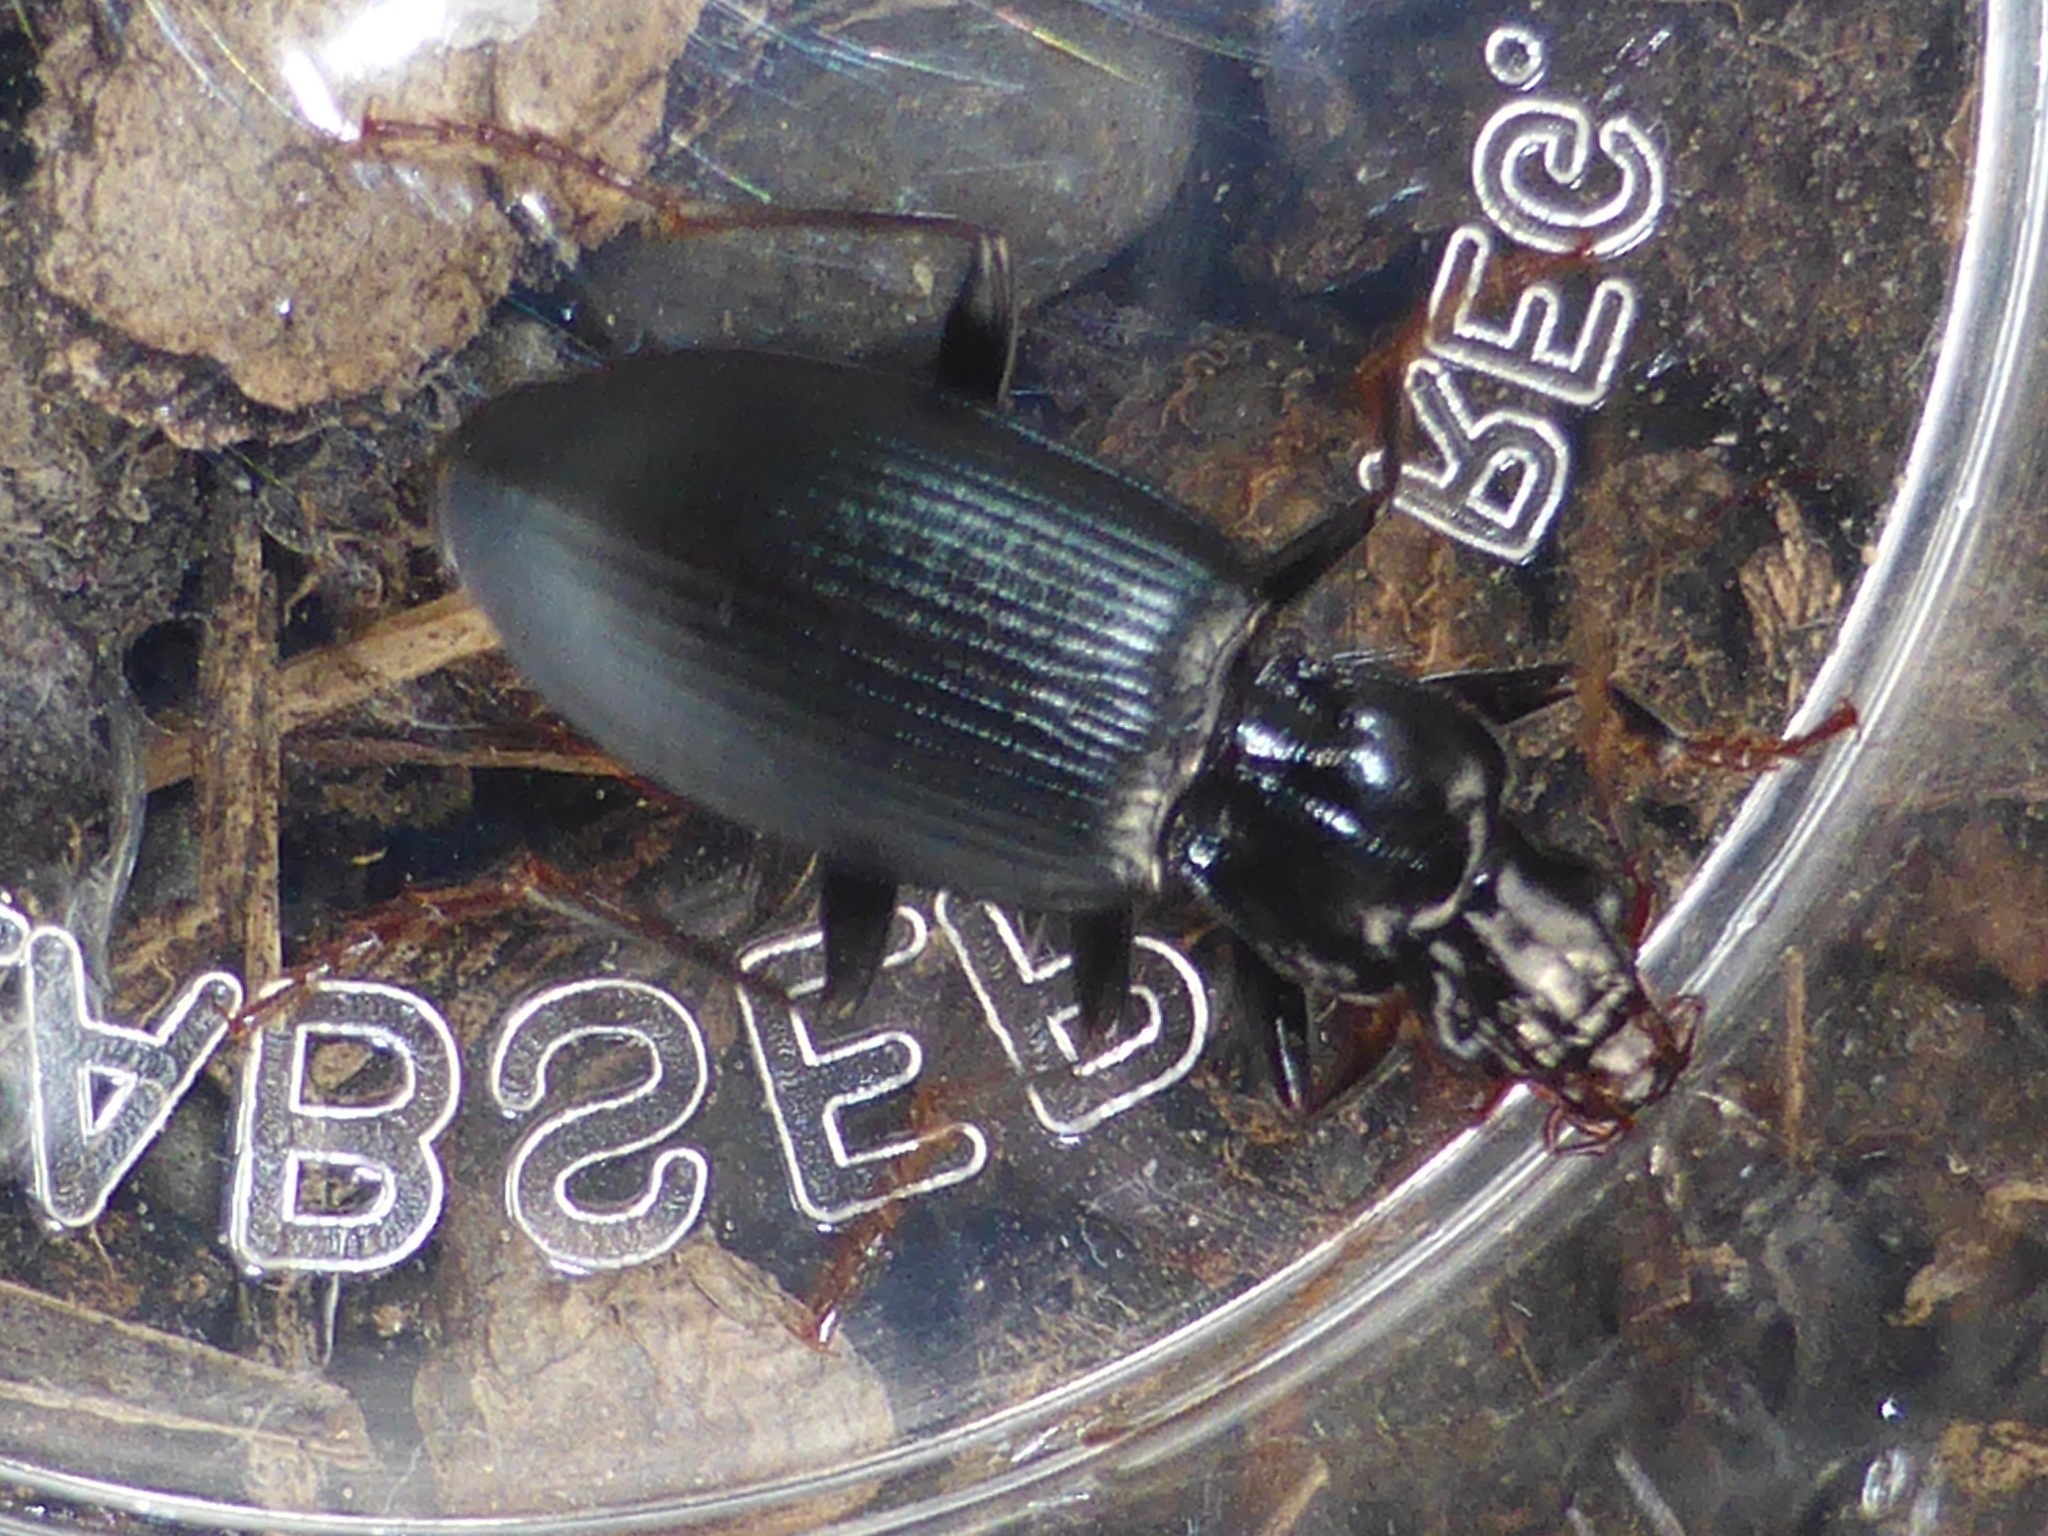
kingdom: Animalia
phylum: Arthropoda
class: Insecta
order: Coleoptera
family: Carabidae
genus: Laemostenus
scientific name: Laemostenus complanatus
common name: Cosmopolitan ground beetle
